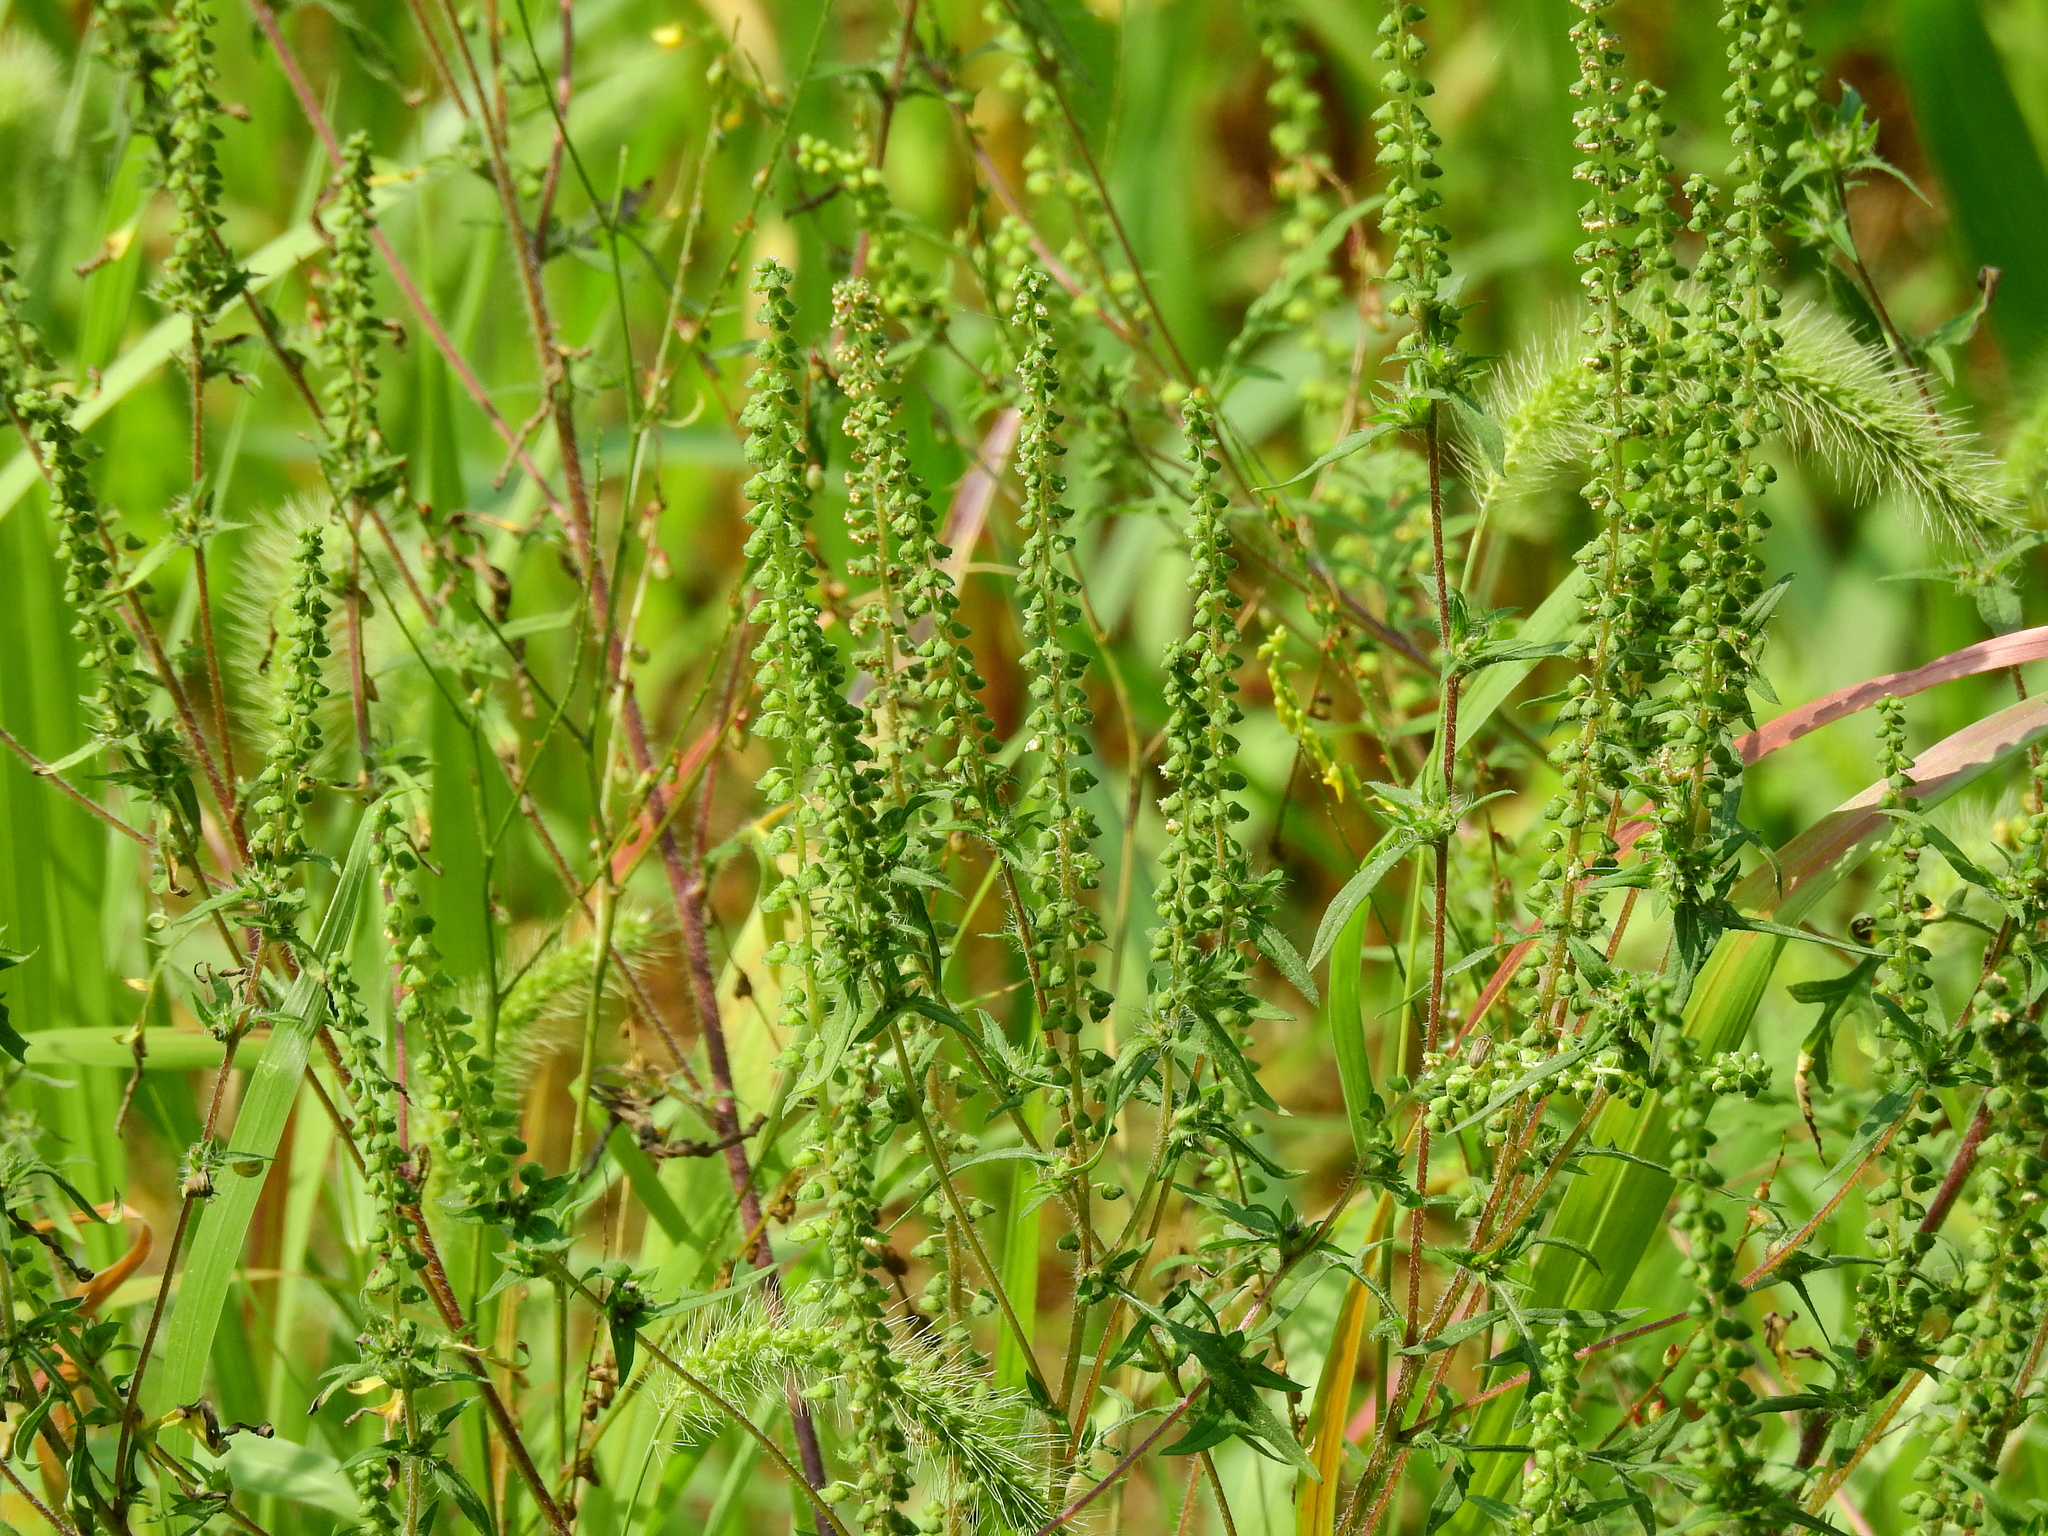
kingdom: Plantae
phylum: Tracheophyta
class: Magnoliopsida
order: Asterales
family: Asteraceae
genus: Ambrosia
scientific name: Ambrosia artemisiifolia
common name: Annual ragweed
